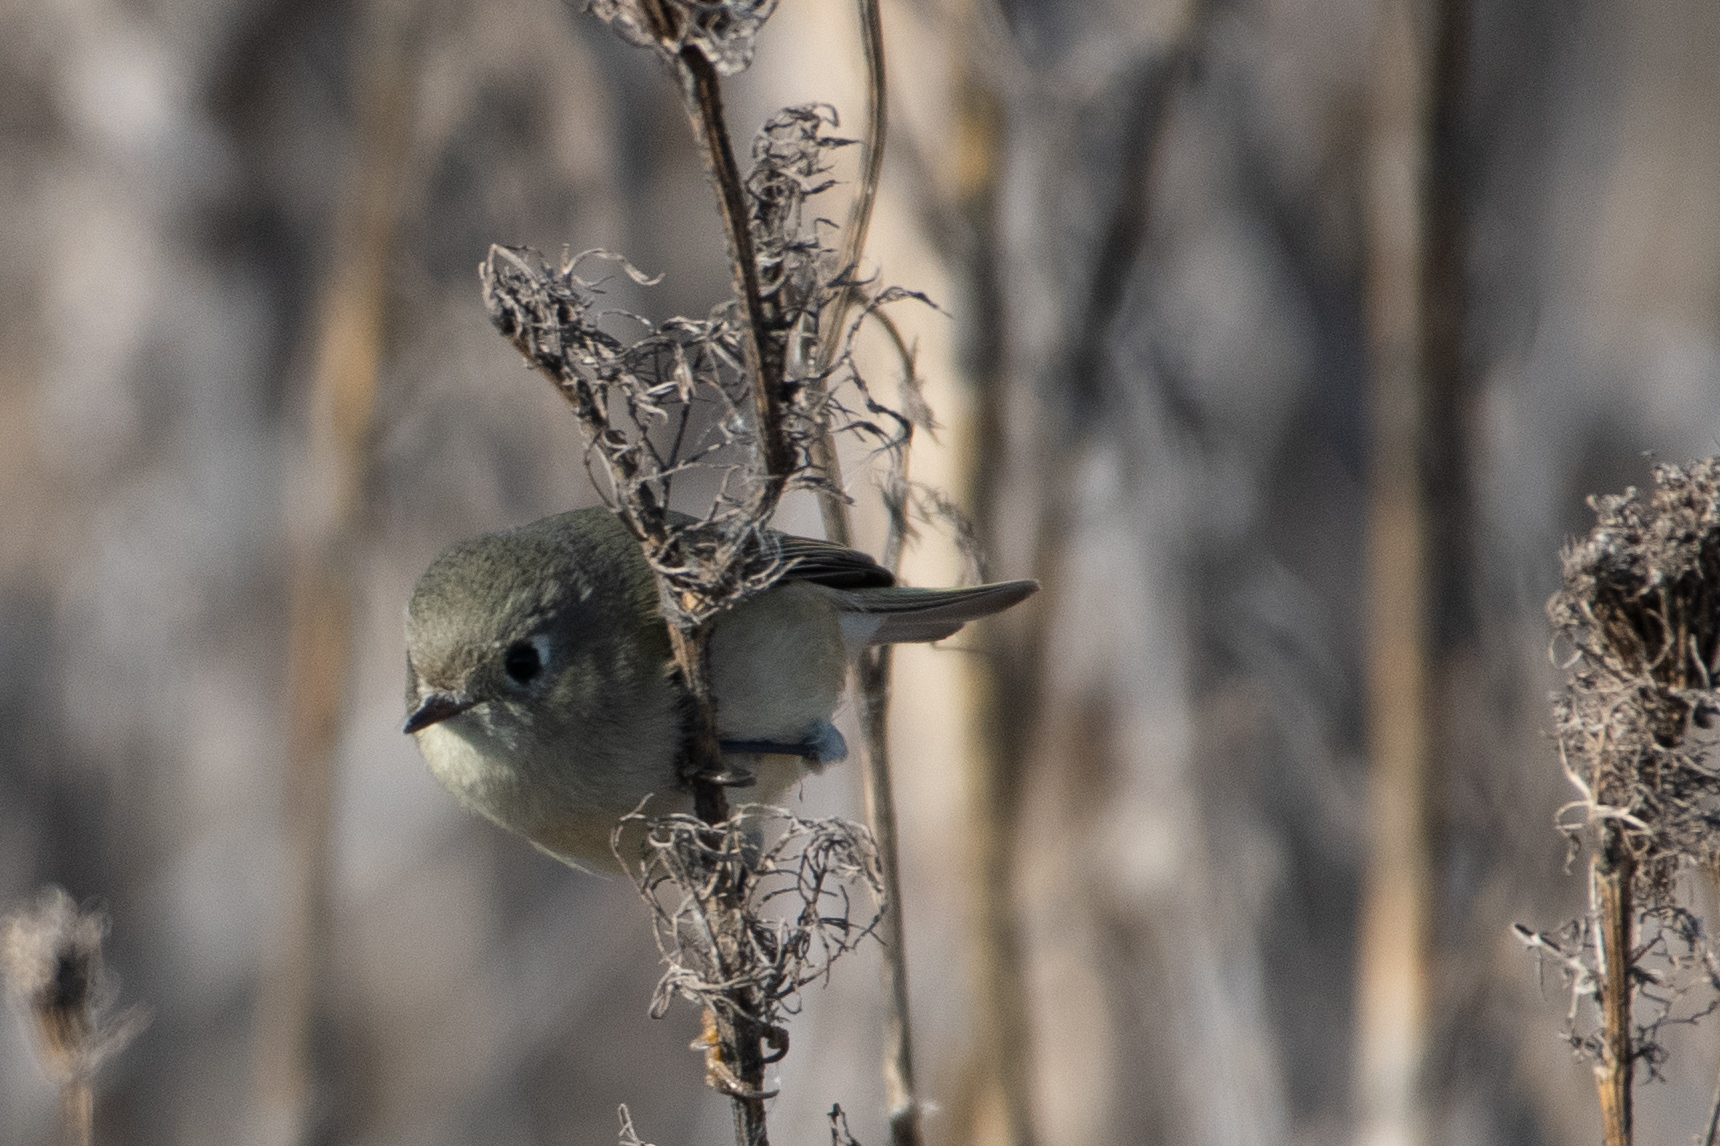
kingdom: Animalia
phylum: Chordata
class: Aves
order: Passeriformes
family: Regulidae
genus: Regulus
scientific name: Regulus calendula
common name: Ruby-crowned kinglet
